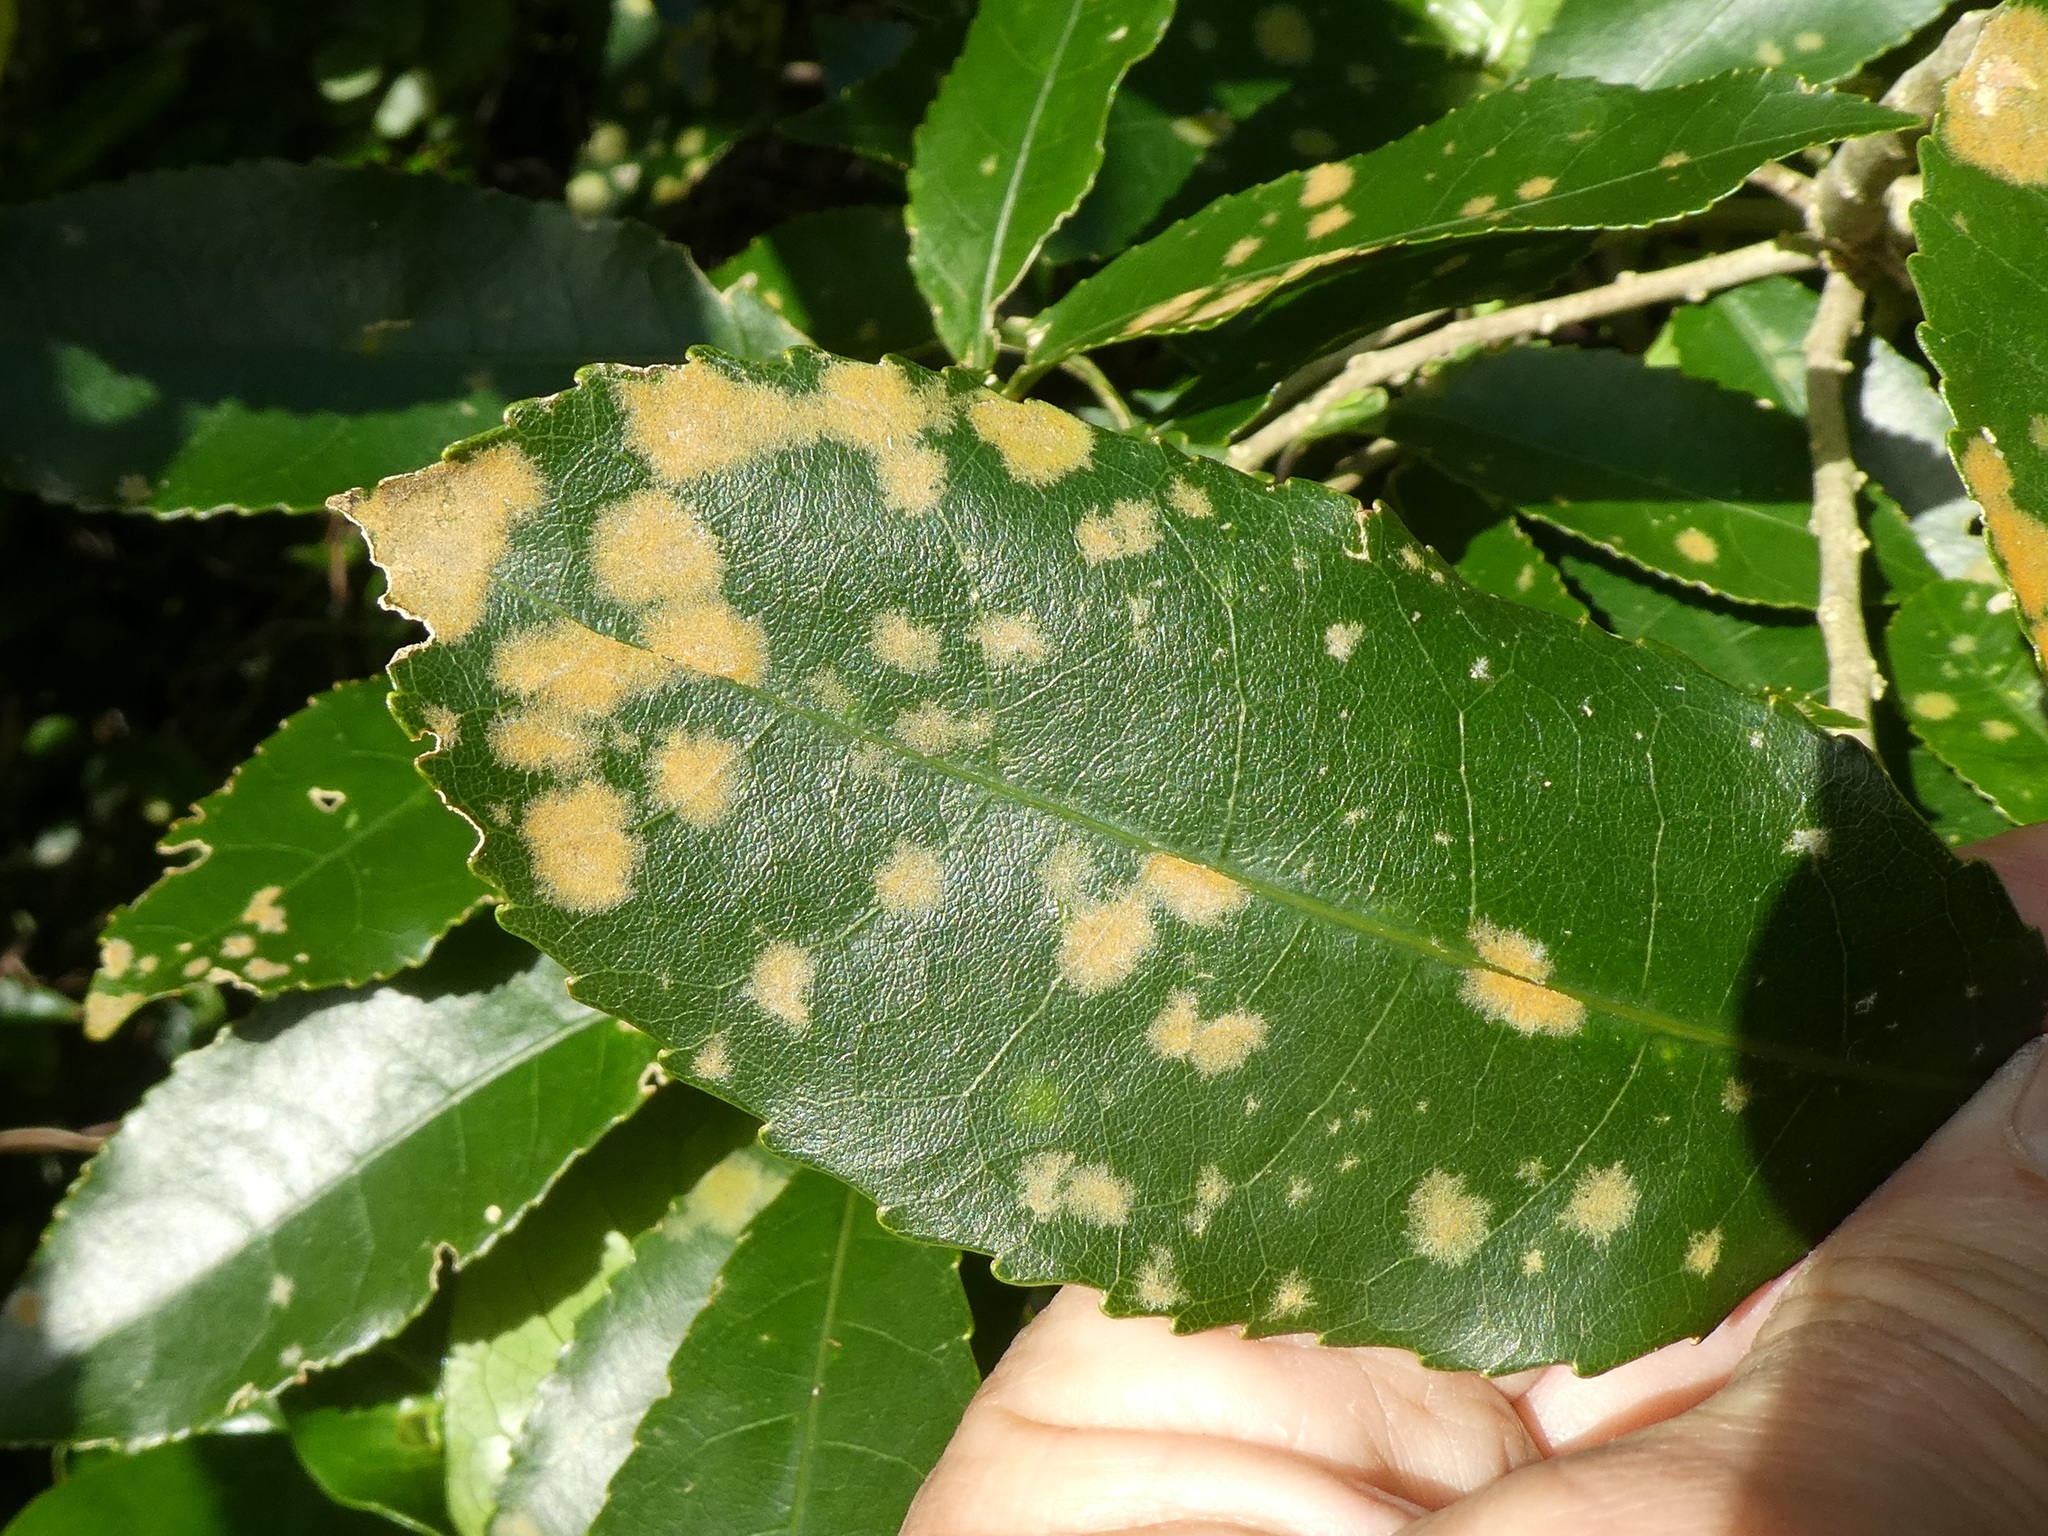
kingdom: Plantae
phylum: Chlorophyta
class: Ulvophyceae
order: Trentepohliales
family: Trentepohliaceae
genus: Cephaleuros
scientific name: Cephaleuros
